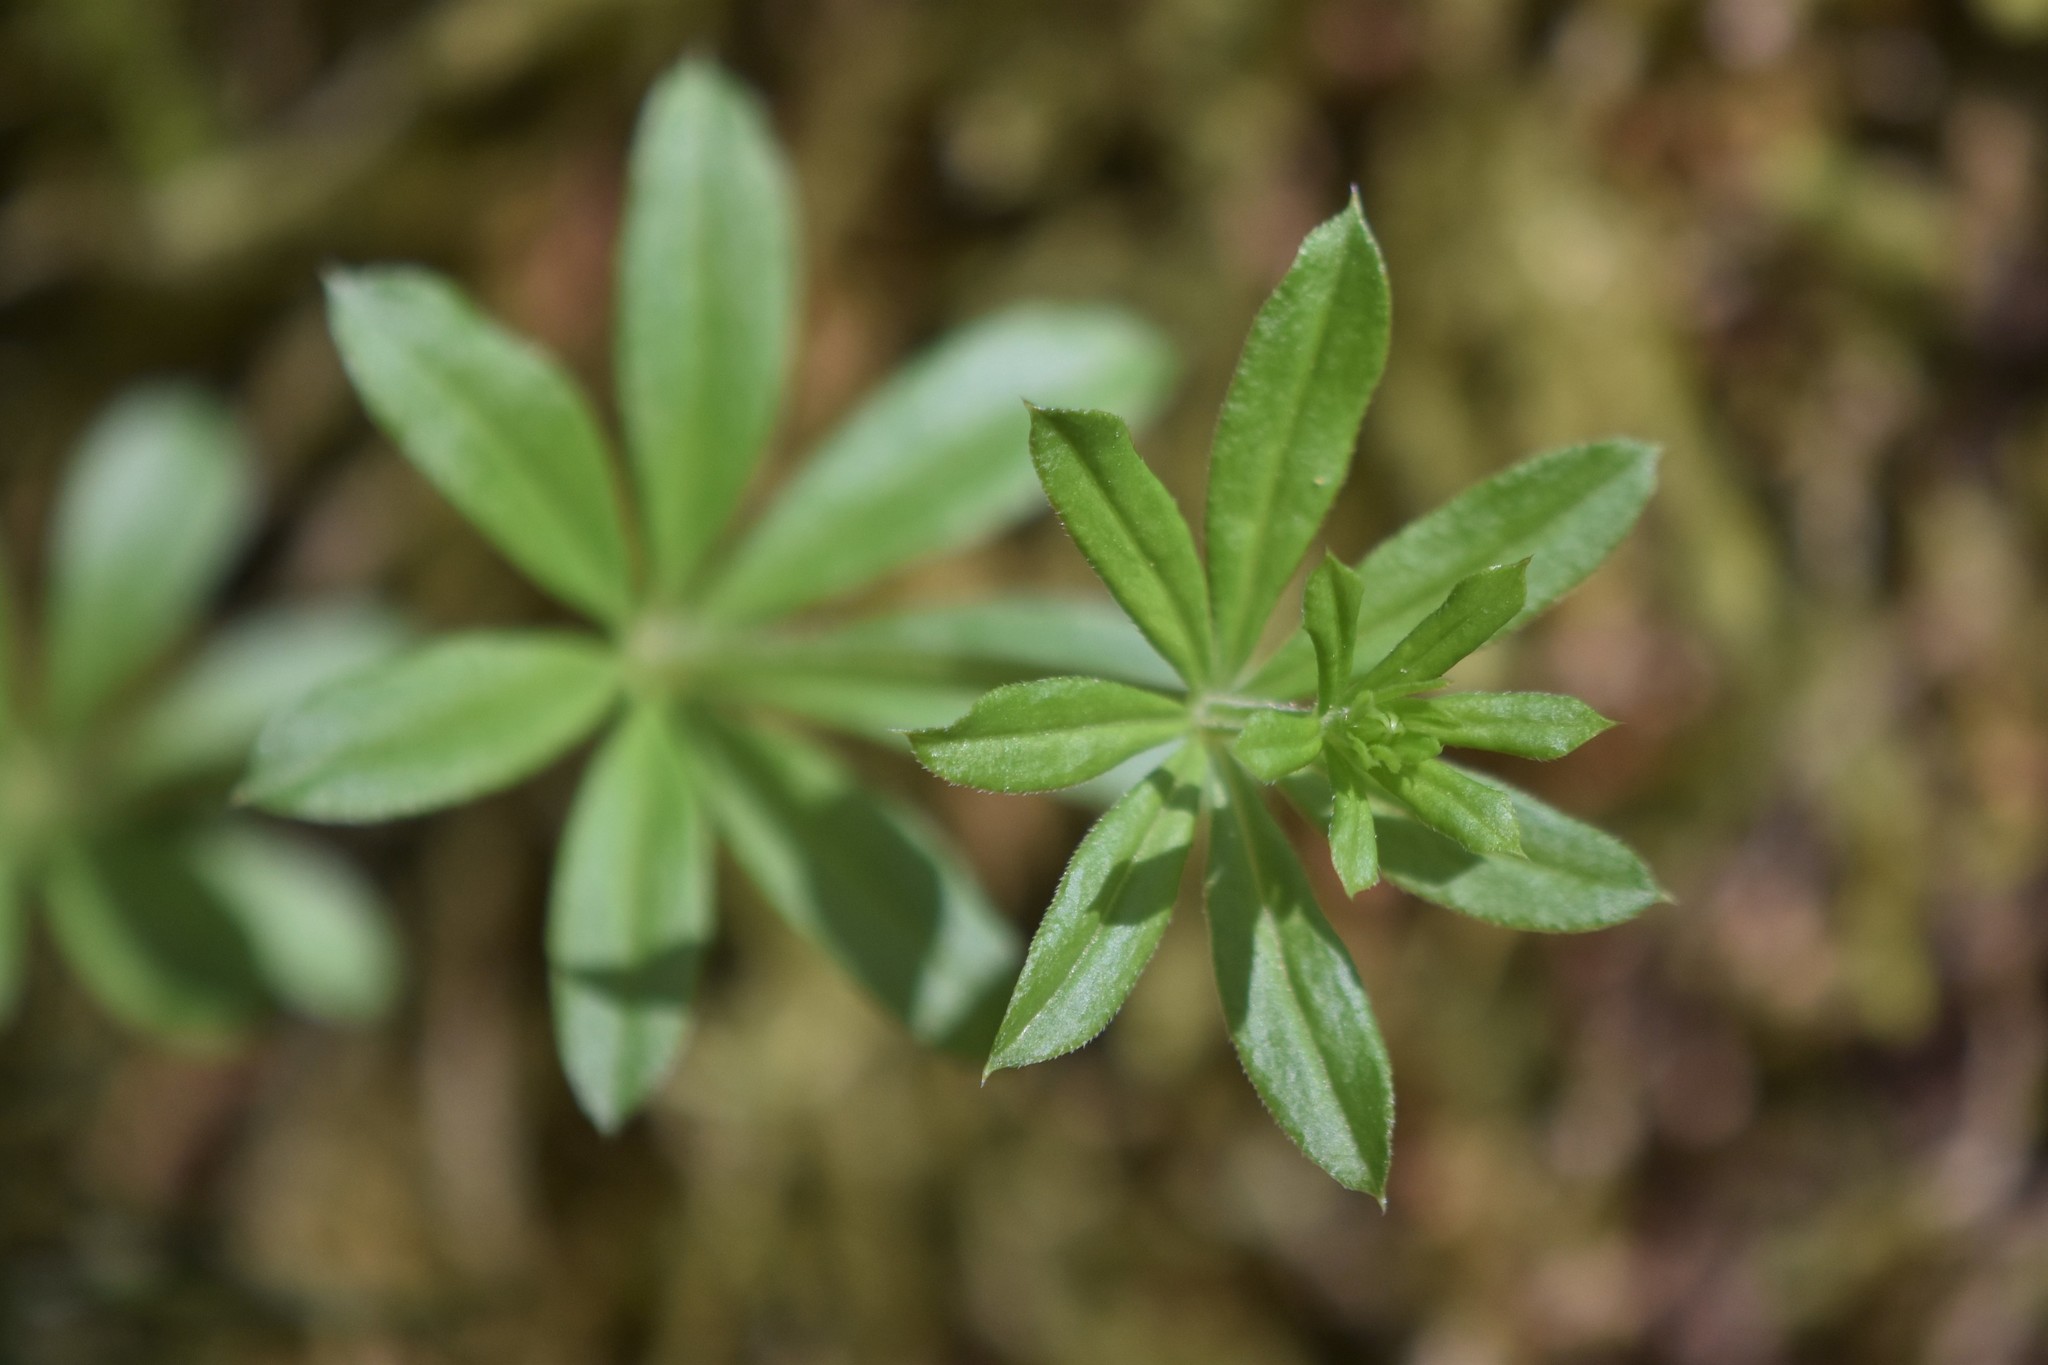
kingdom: Plantae
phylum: Tracheophyta
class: Magnoliopsida
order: Gentianales
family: Rubiaceae
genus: Galium
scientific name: Galium triflorum
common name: Fragrant bedstraw
